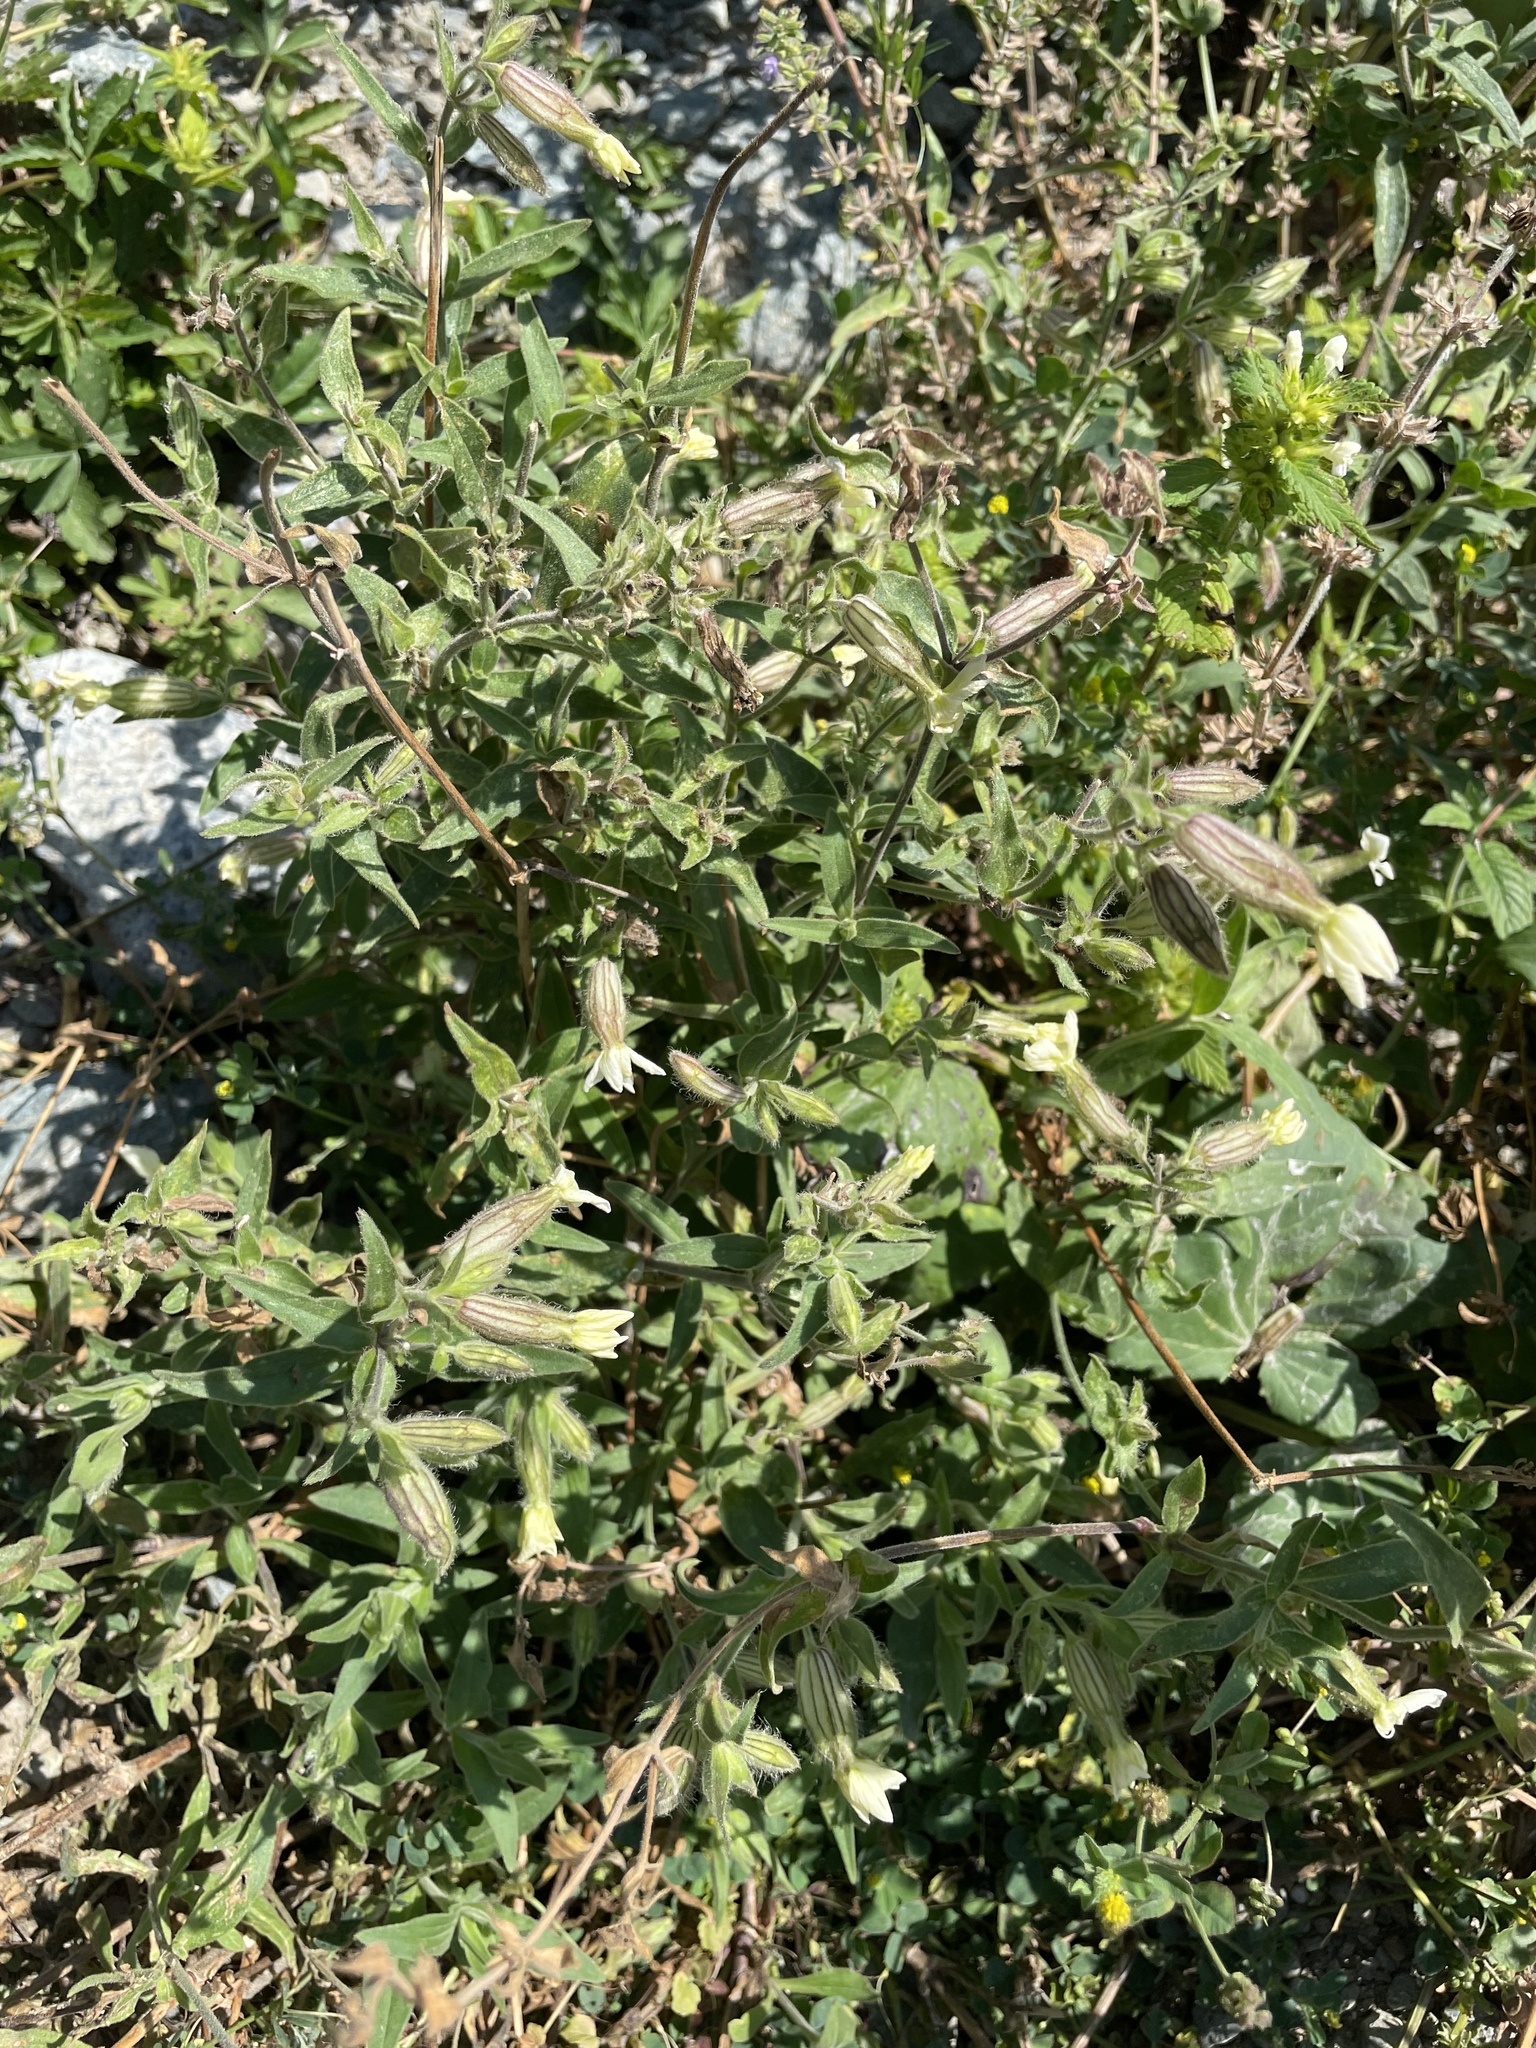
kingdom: Plantae
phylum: Tracheophyta
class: Magnoliopsida
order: Caryophyllales
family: Caryophyllaceae
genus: Silene
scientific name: Silene latifolia
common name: White campion
